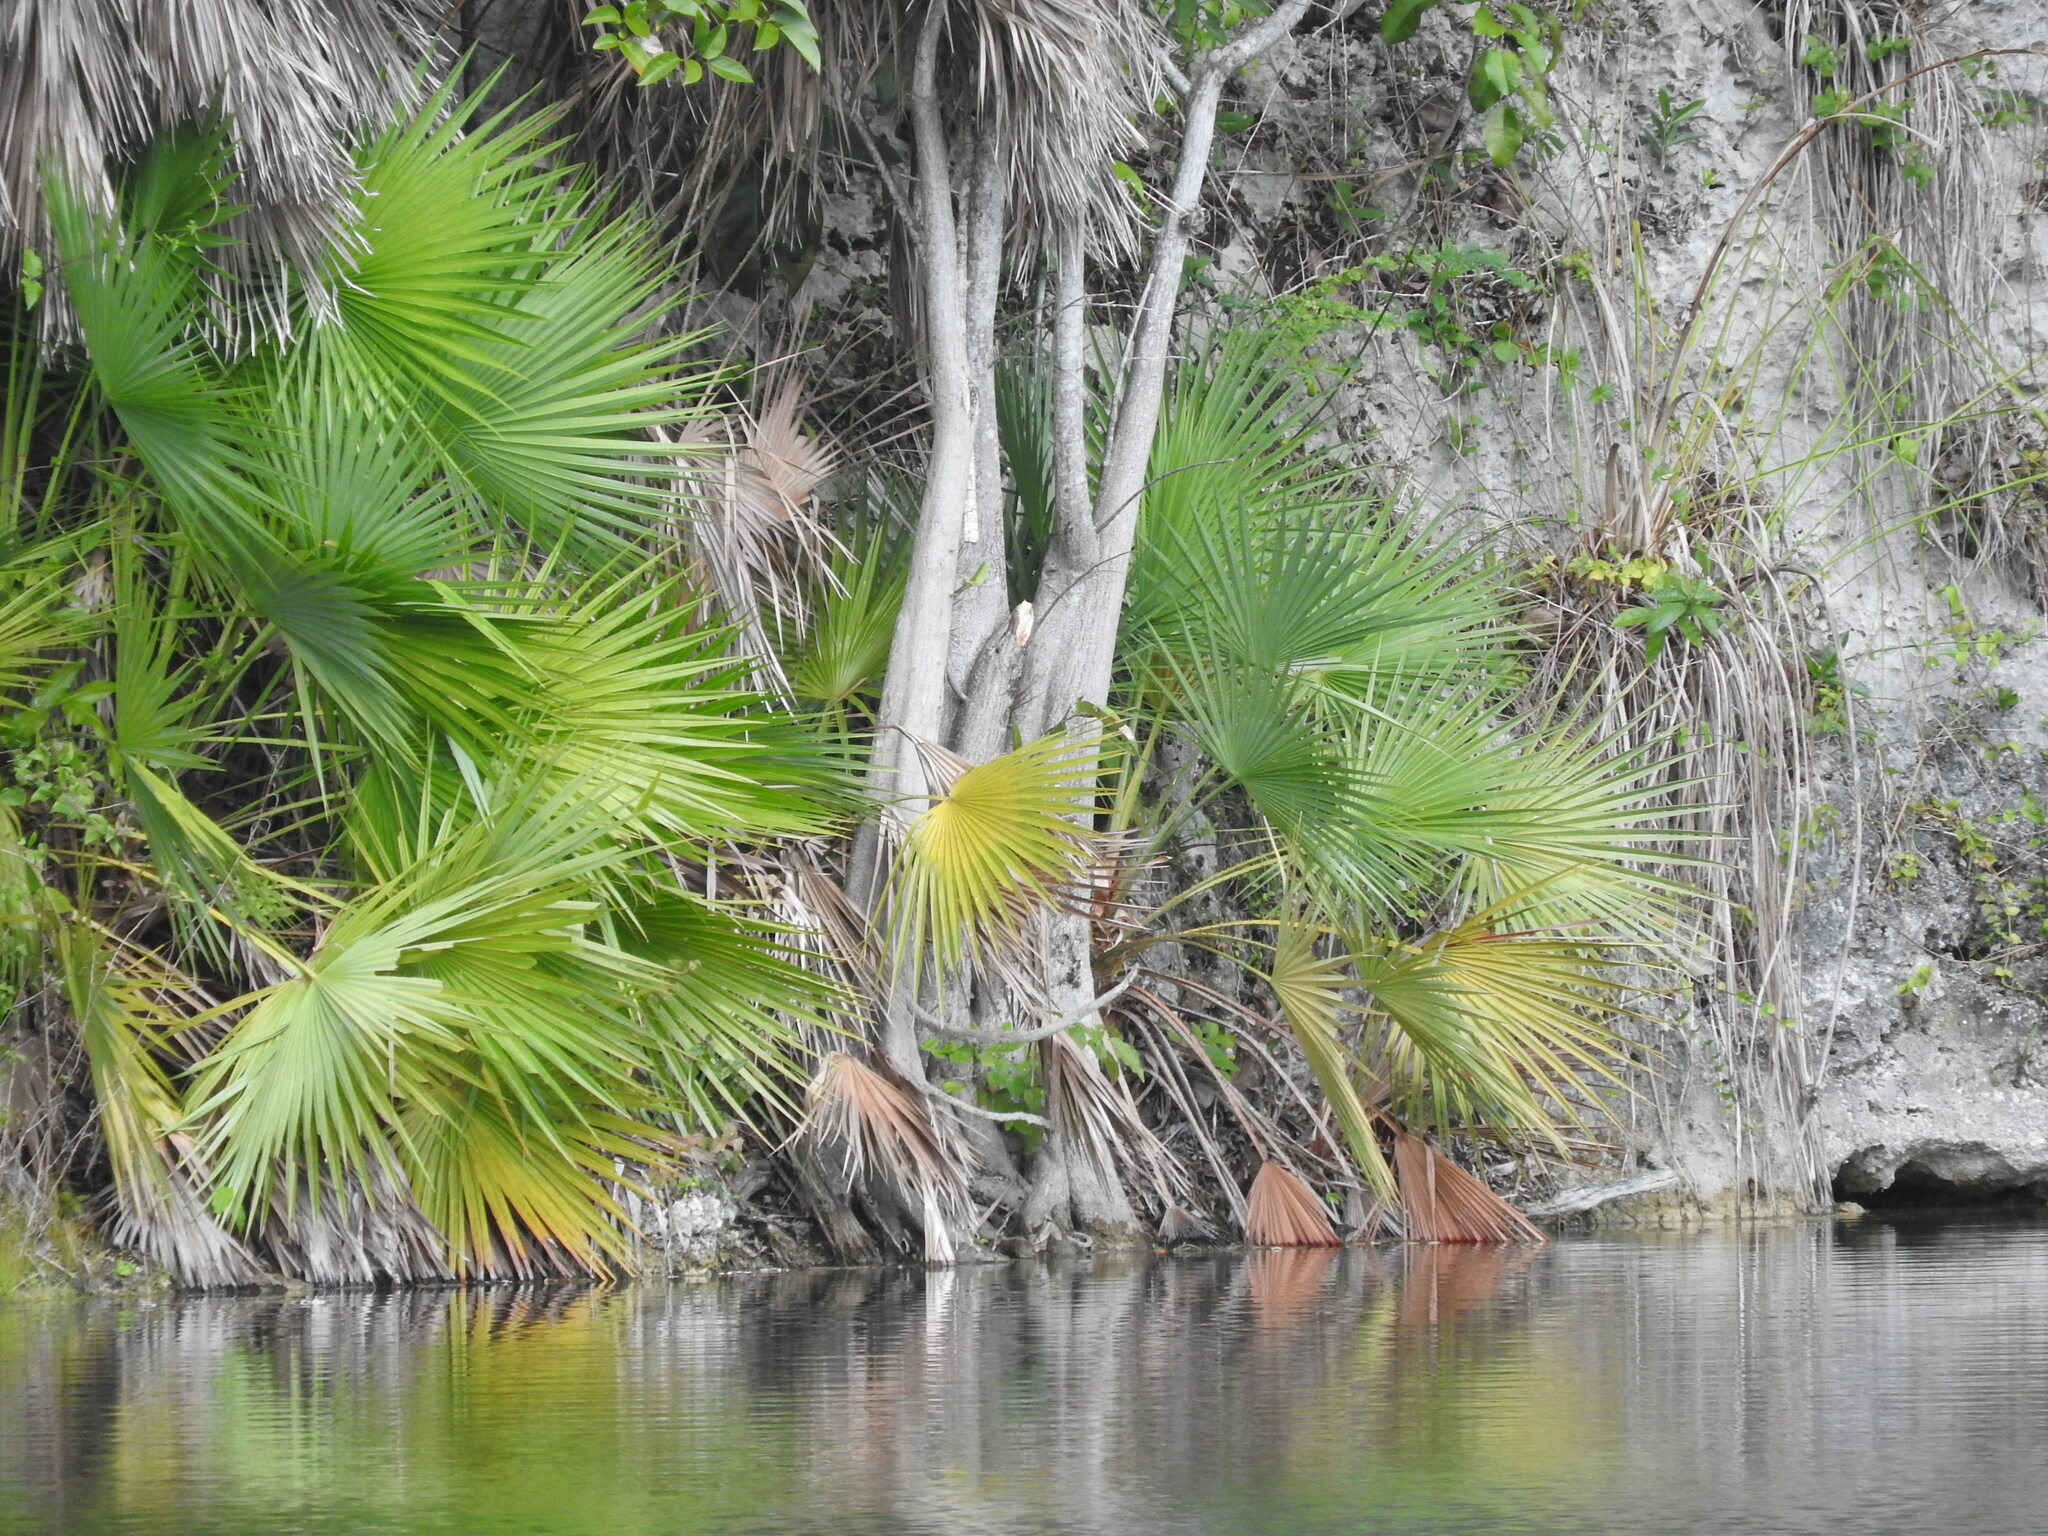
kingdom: Plantae
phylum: Tracheophyta
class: Liliopsida
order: Arecales
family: Arecaceae
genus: Acoelorraphe
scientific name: Acoelorraphe wrightii
